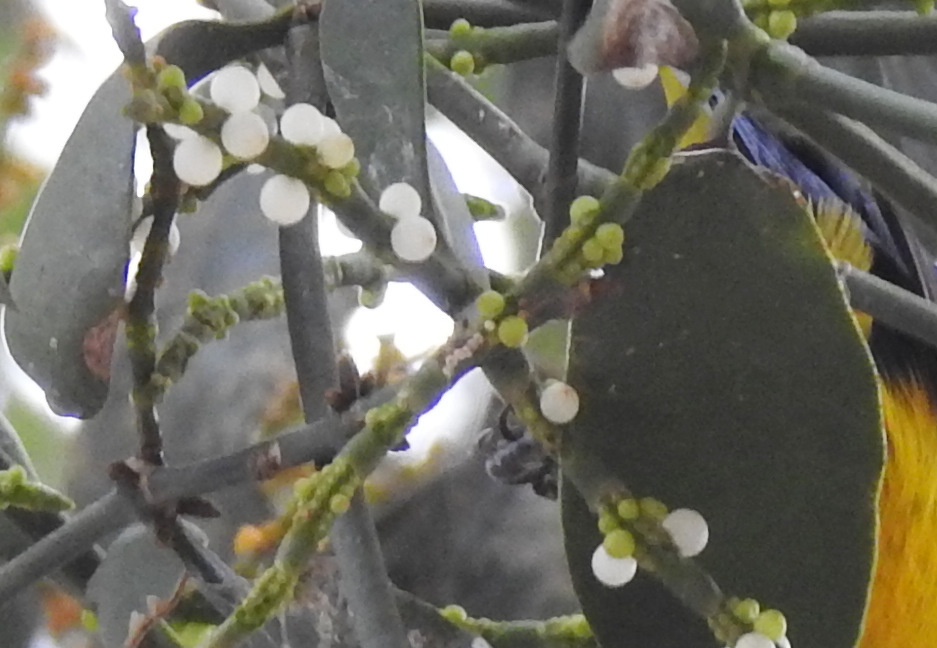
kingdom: Plantae
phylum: Tracheophyta
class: Magnoliopsida
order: Santalales
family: Viscaceae
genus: Phoradendron
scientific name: Phoradendron dipterum
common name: Fourpart mistletoe
